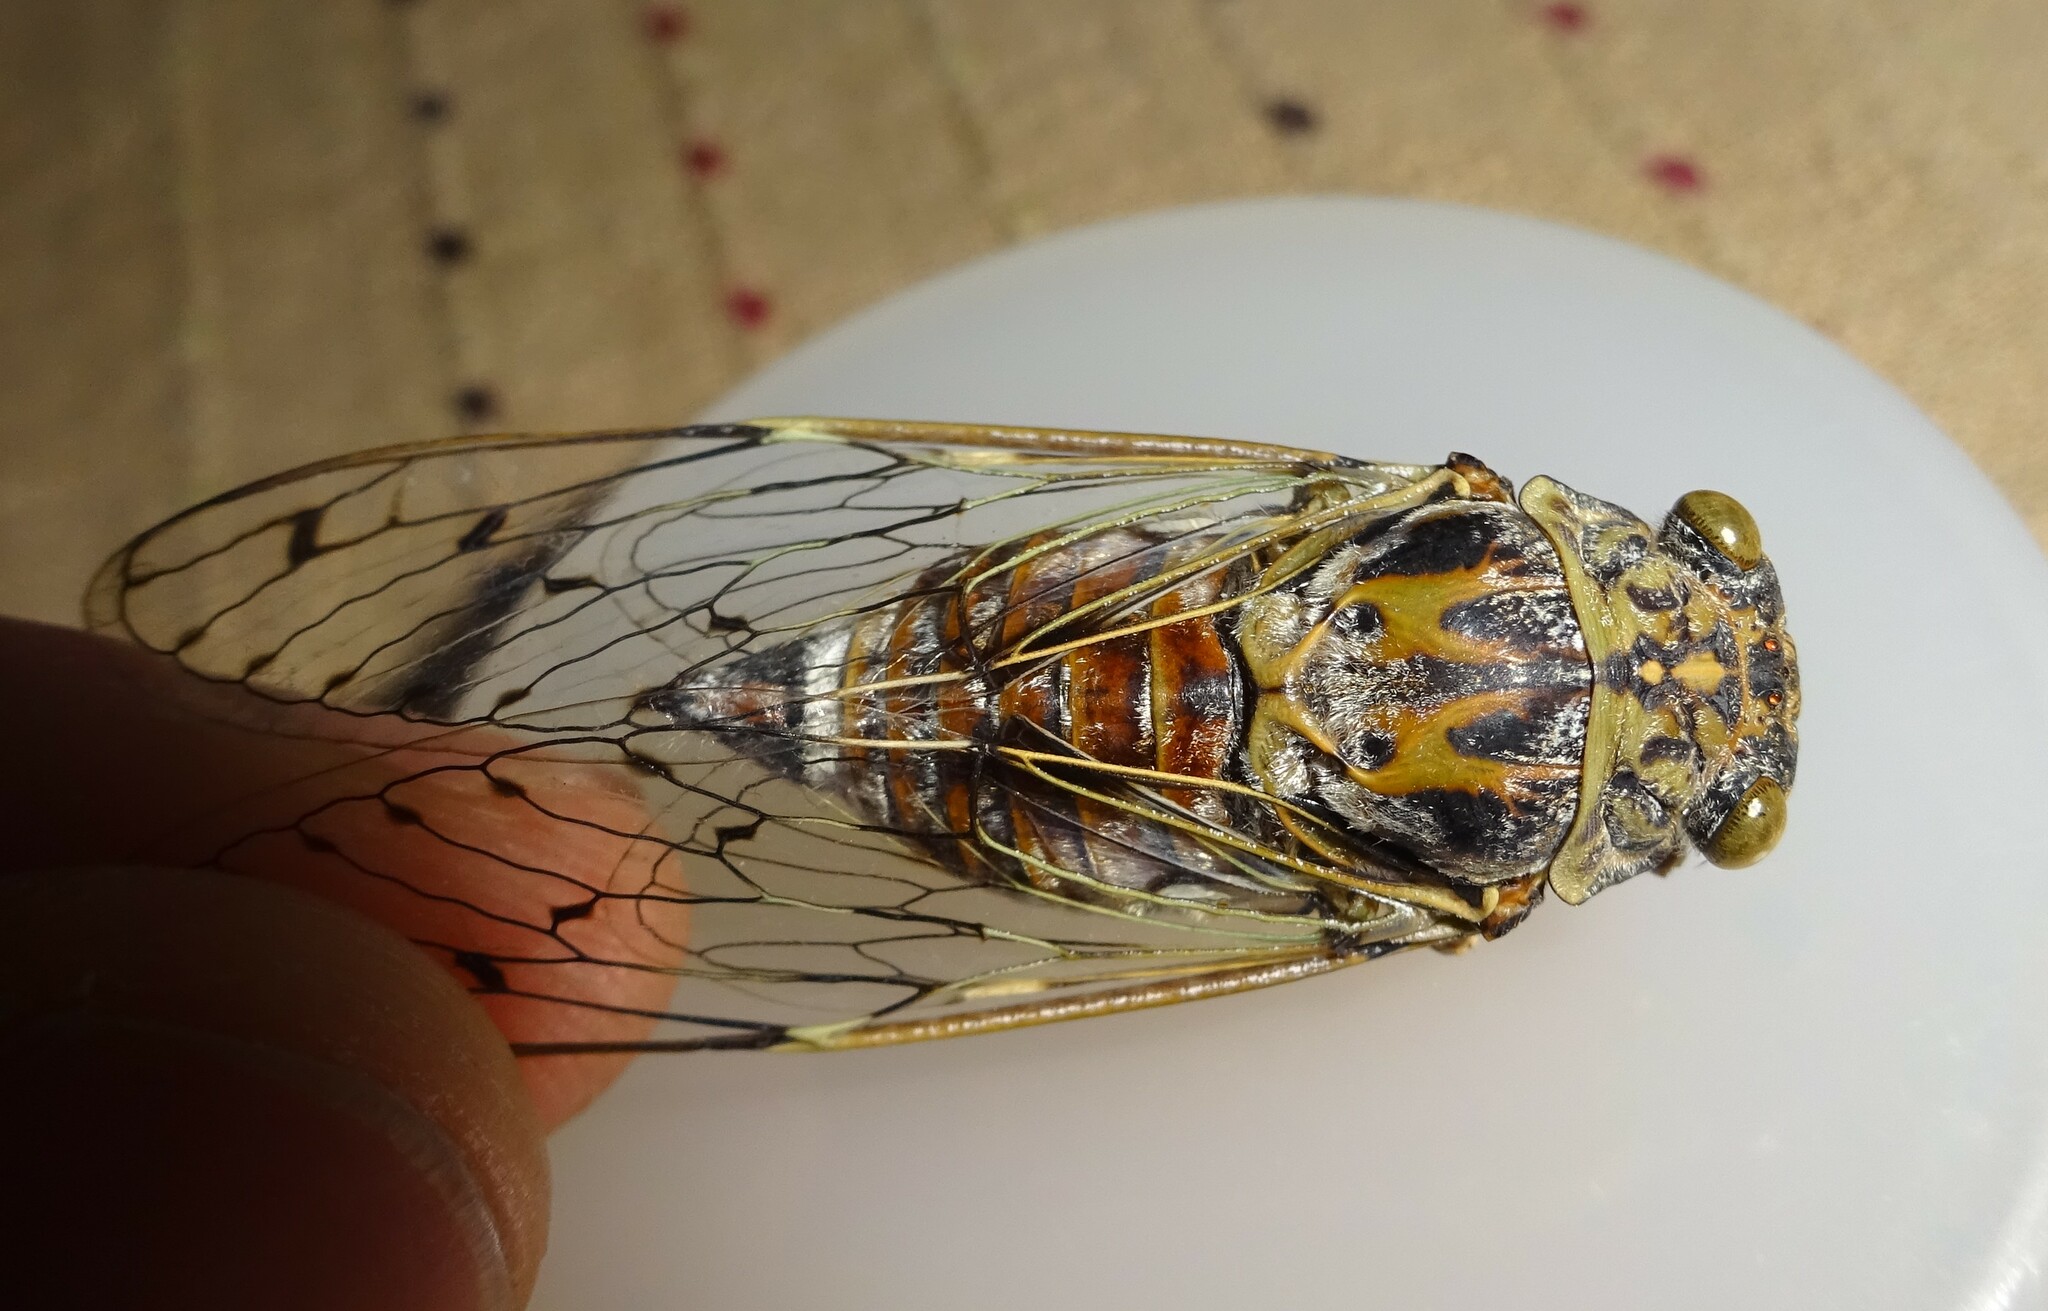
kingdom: Animalia
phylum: Arthropoda
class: Insecta
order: Hemiptera
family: Cicadidae
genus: Cicada
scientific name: Cicada orni
